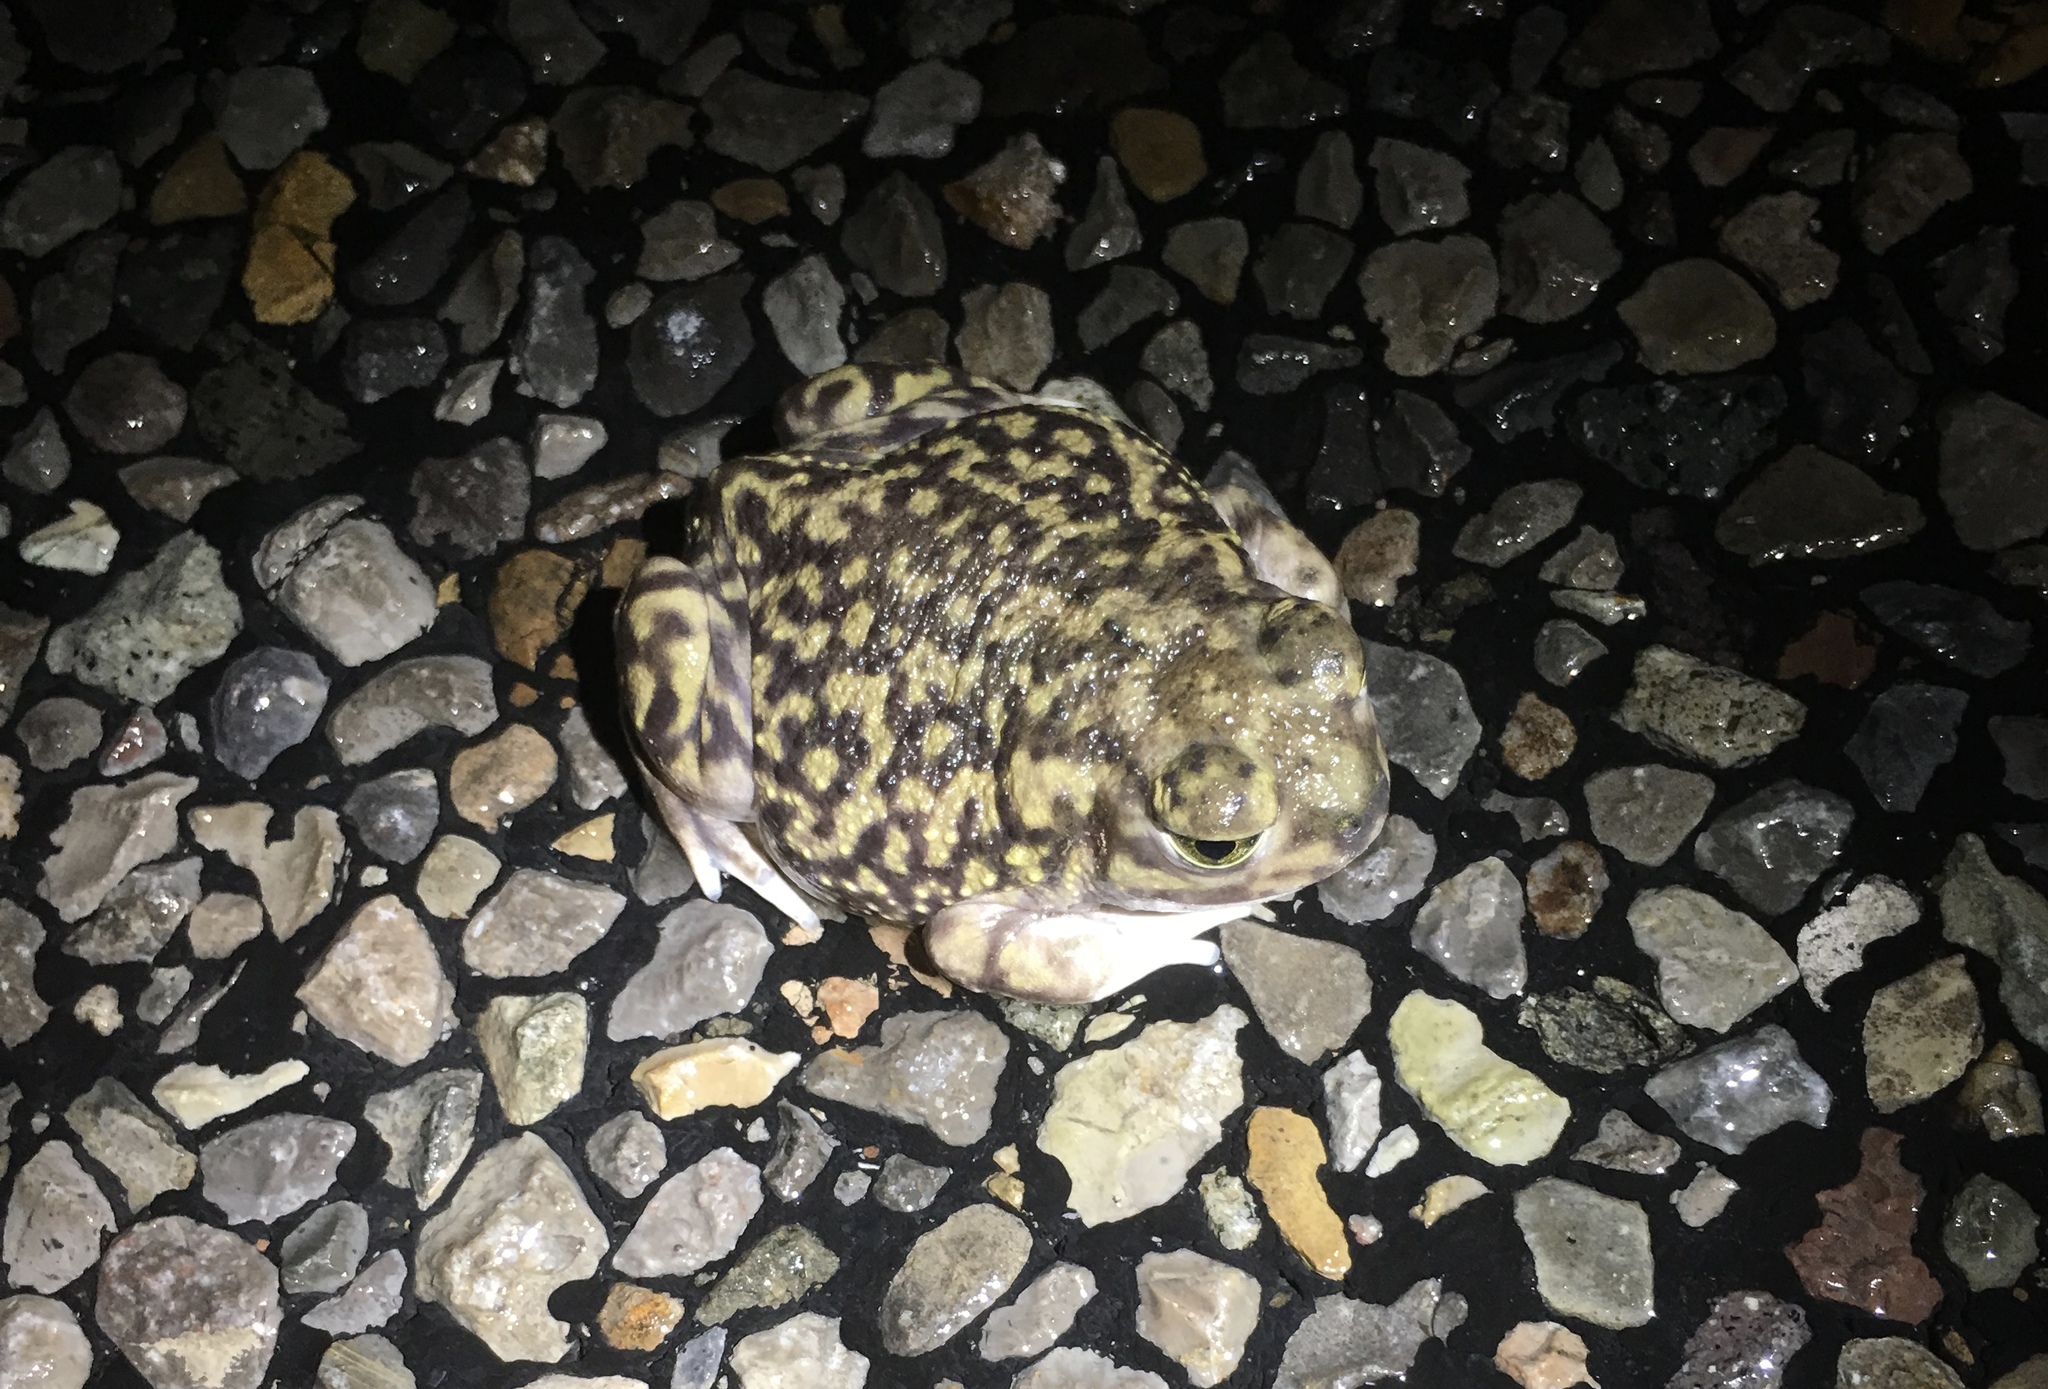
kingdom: Animalia
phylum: Chordata
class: Amphibia
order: Anura
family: Scaphiopodidae
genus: Scaphiopus
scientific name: Scaphiopus couchii
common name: Couch's spadefoot toad
